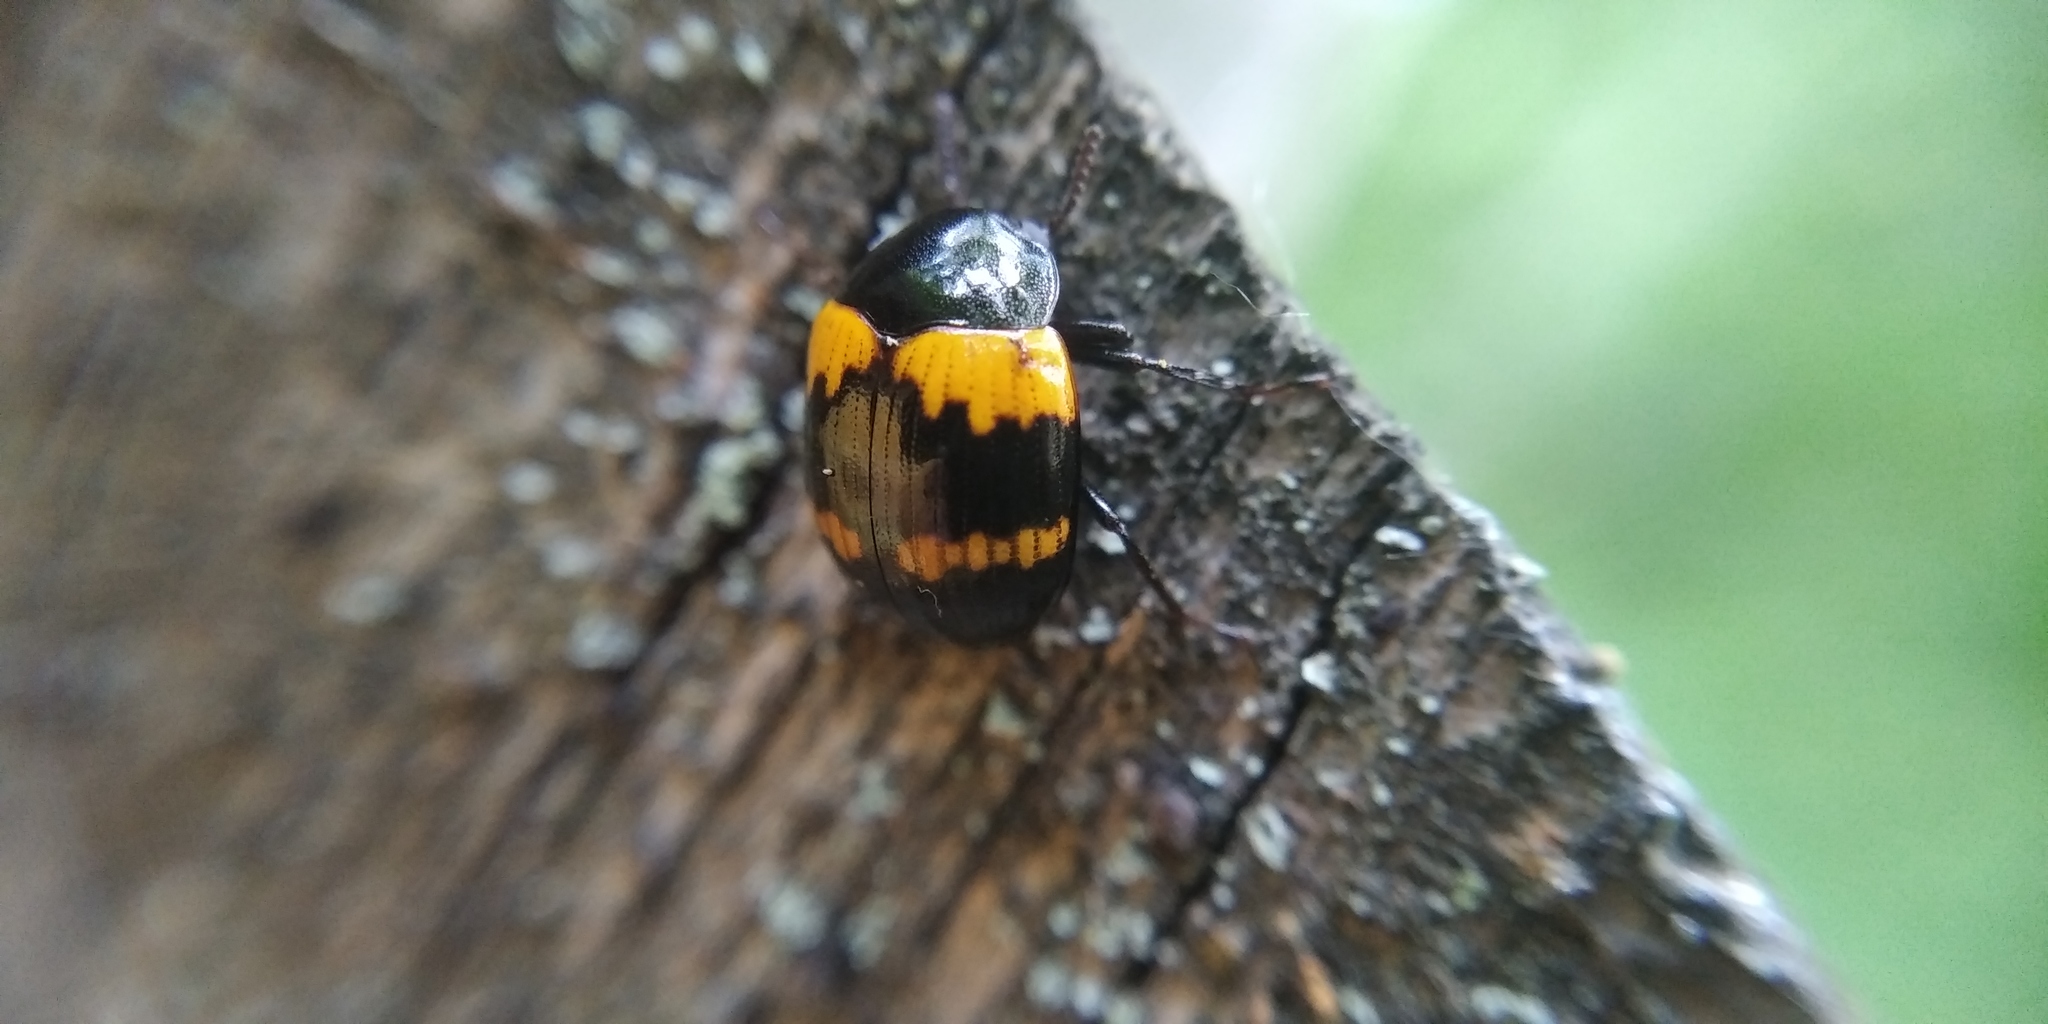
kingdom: Animalia
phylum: Arthropoda
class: Insecta
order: Coleoptera
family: Tenebrionidae
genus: Diaperis
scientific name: Diaperis boleti
